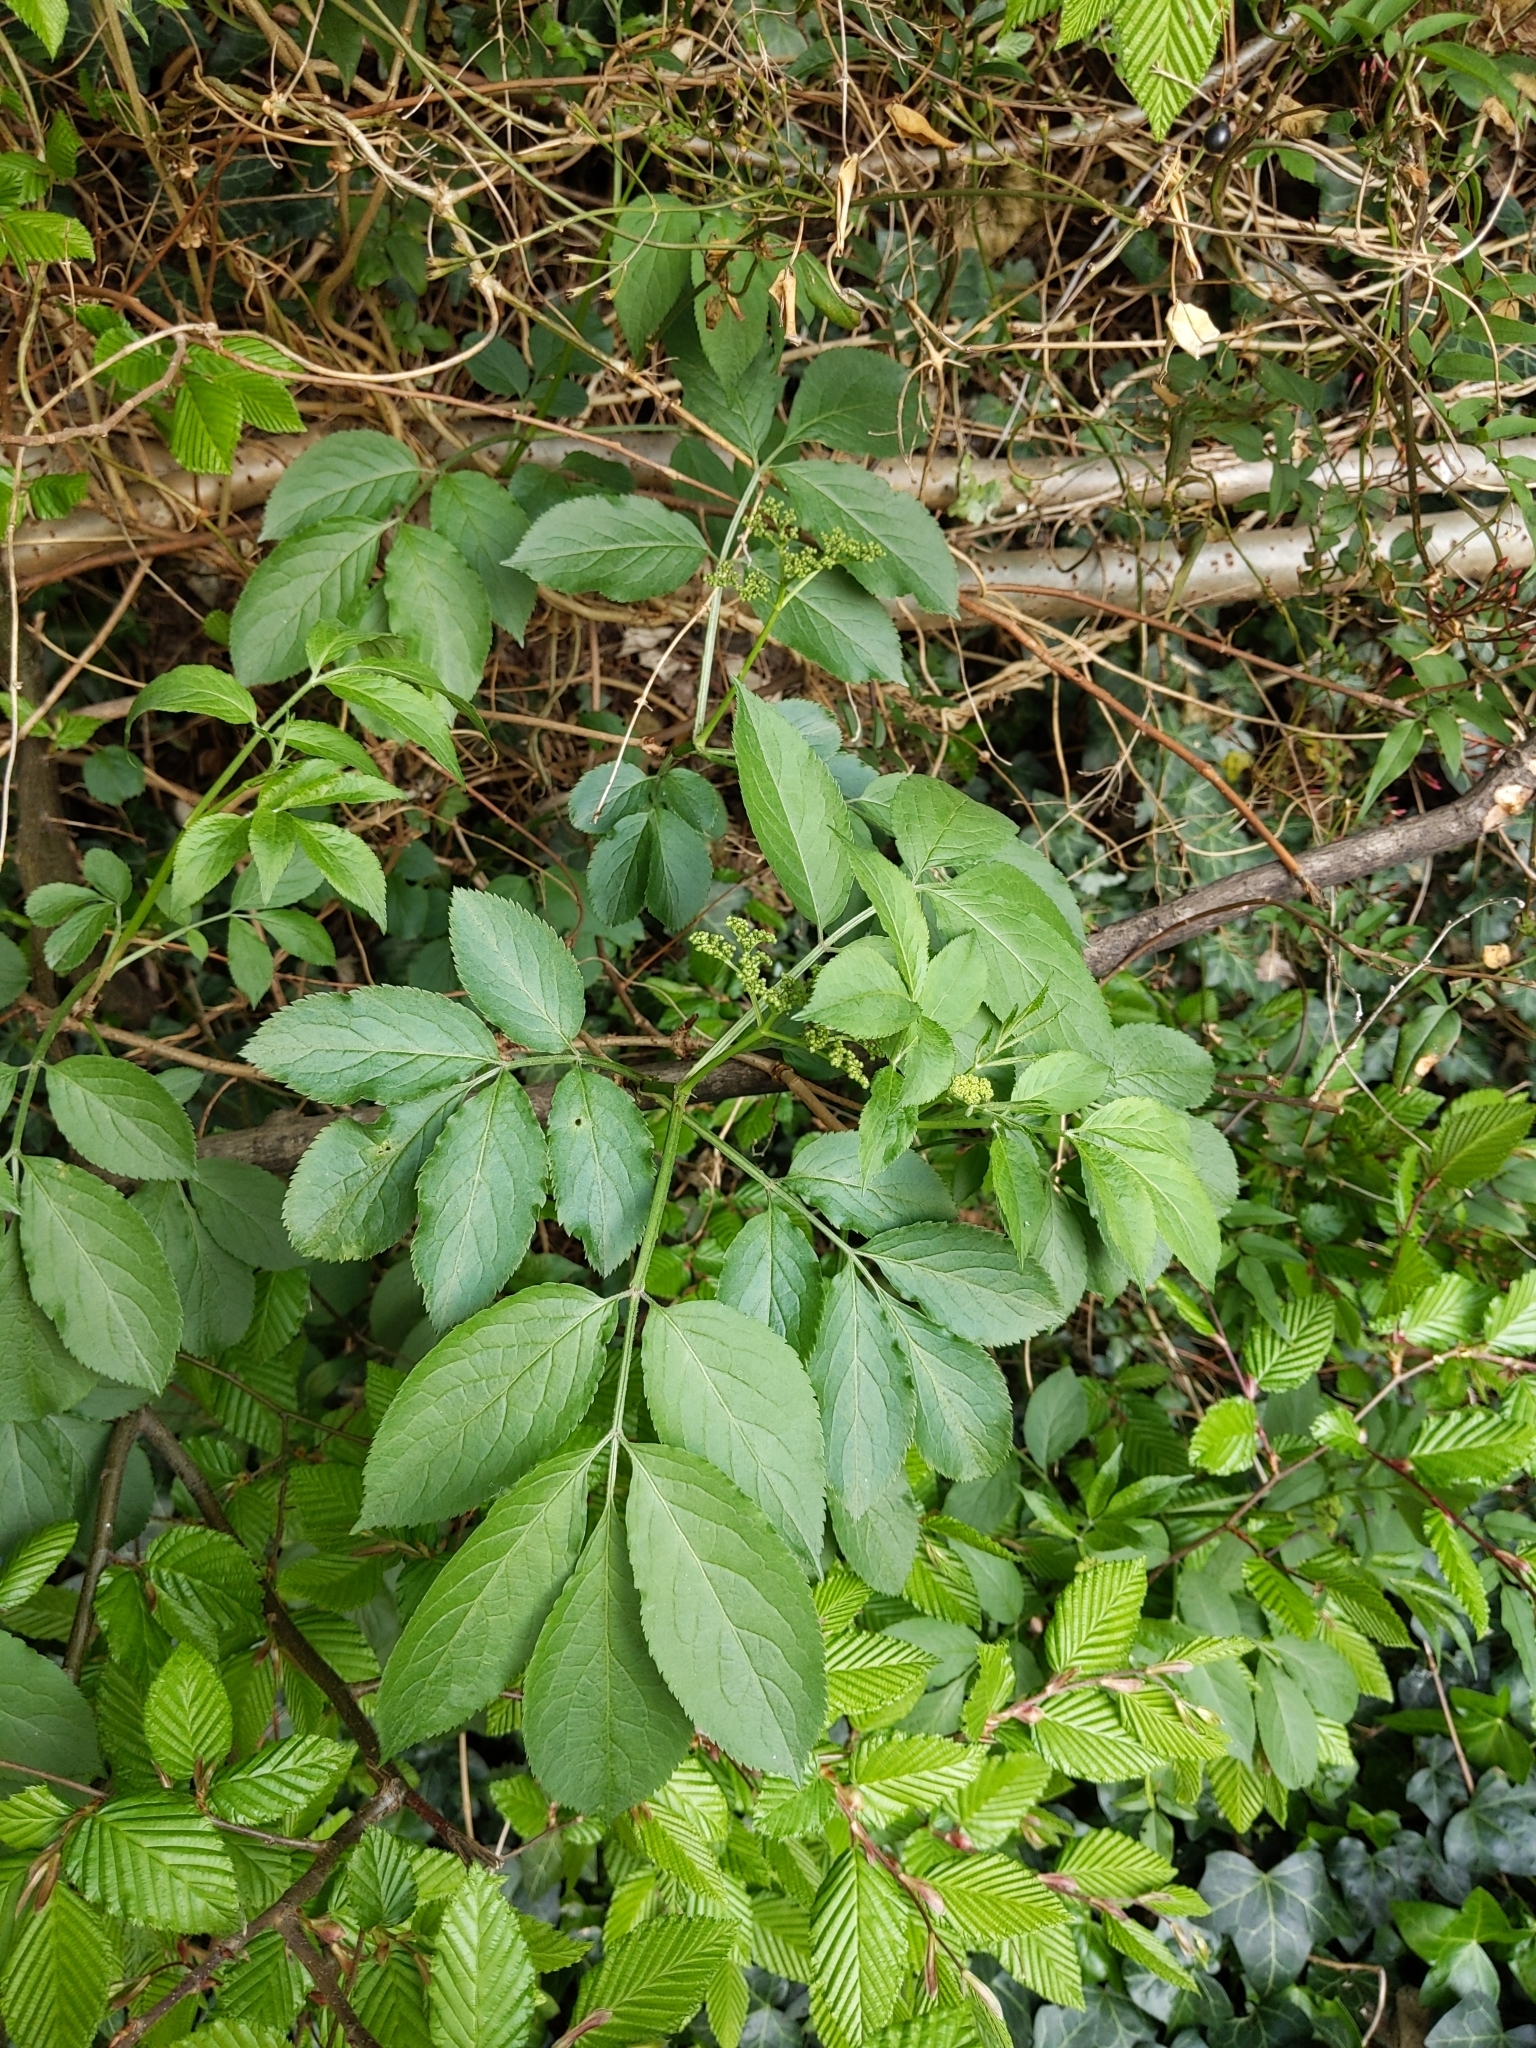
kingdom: Plantae
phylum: Tracheophyta
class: Magnoliopsida
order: Dipsacales
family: Viburnaceae
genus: Sambucus
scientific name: Sambucus nigra
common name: Elder
